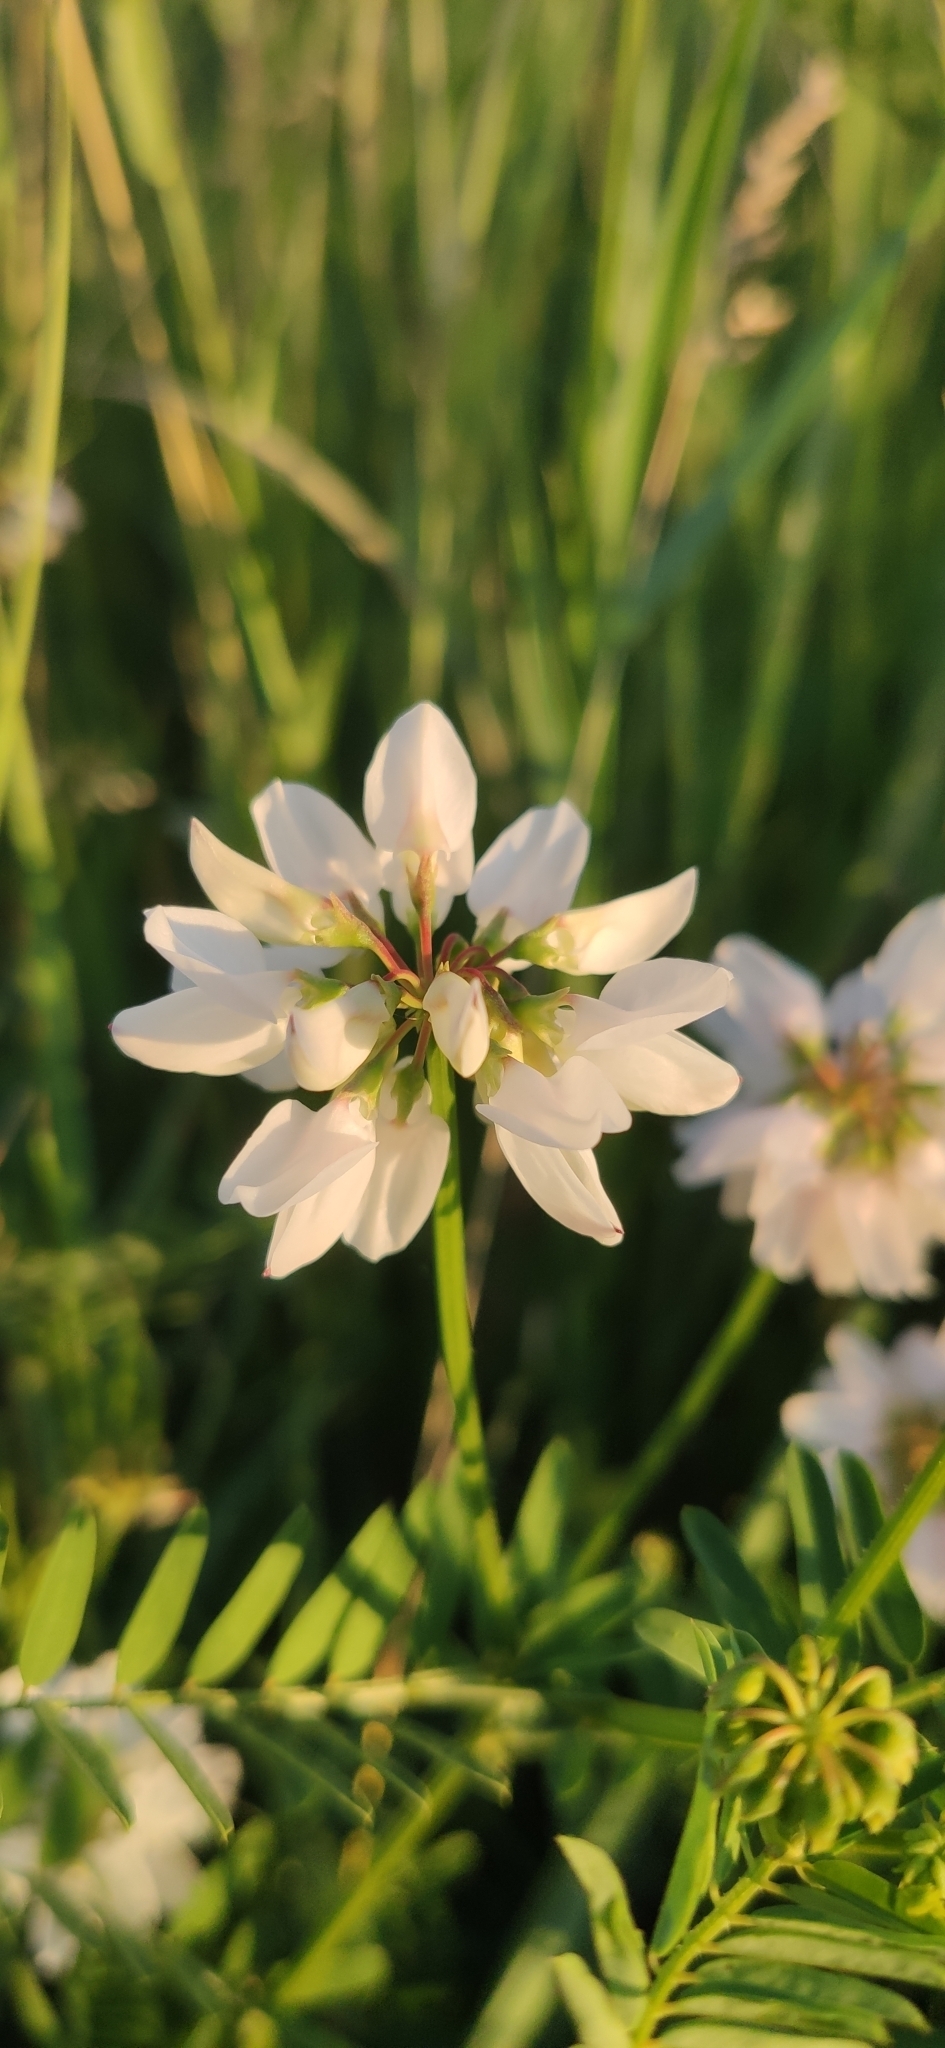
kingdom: Plantae
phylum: Tracheophyta
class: Magnoliopsida
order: Fabales
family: Fabaceae
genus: Coronilla
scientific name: Coronilla varia
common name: Crownvetch
